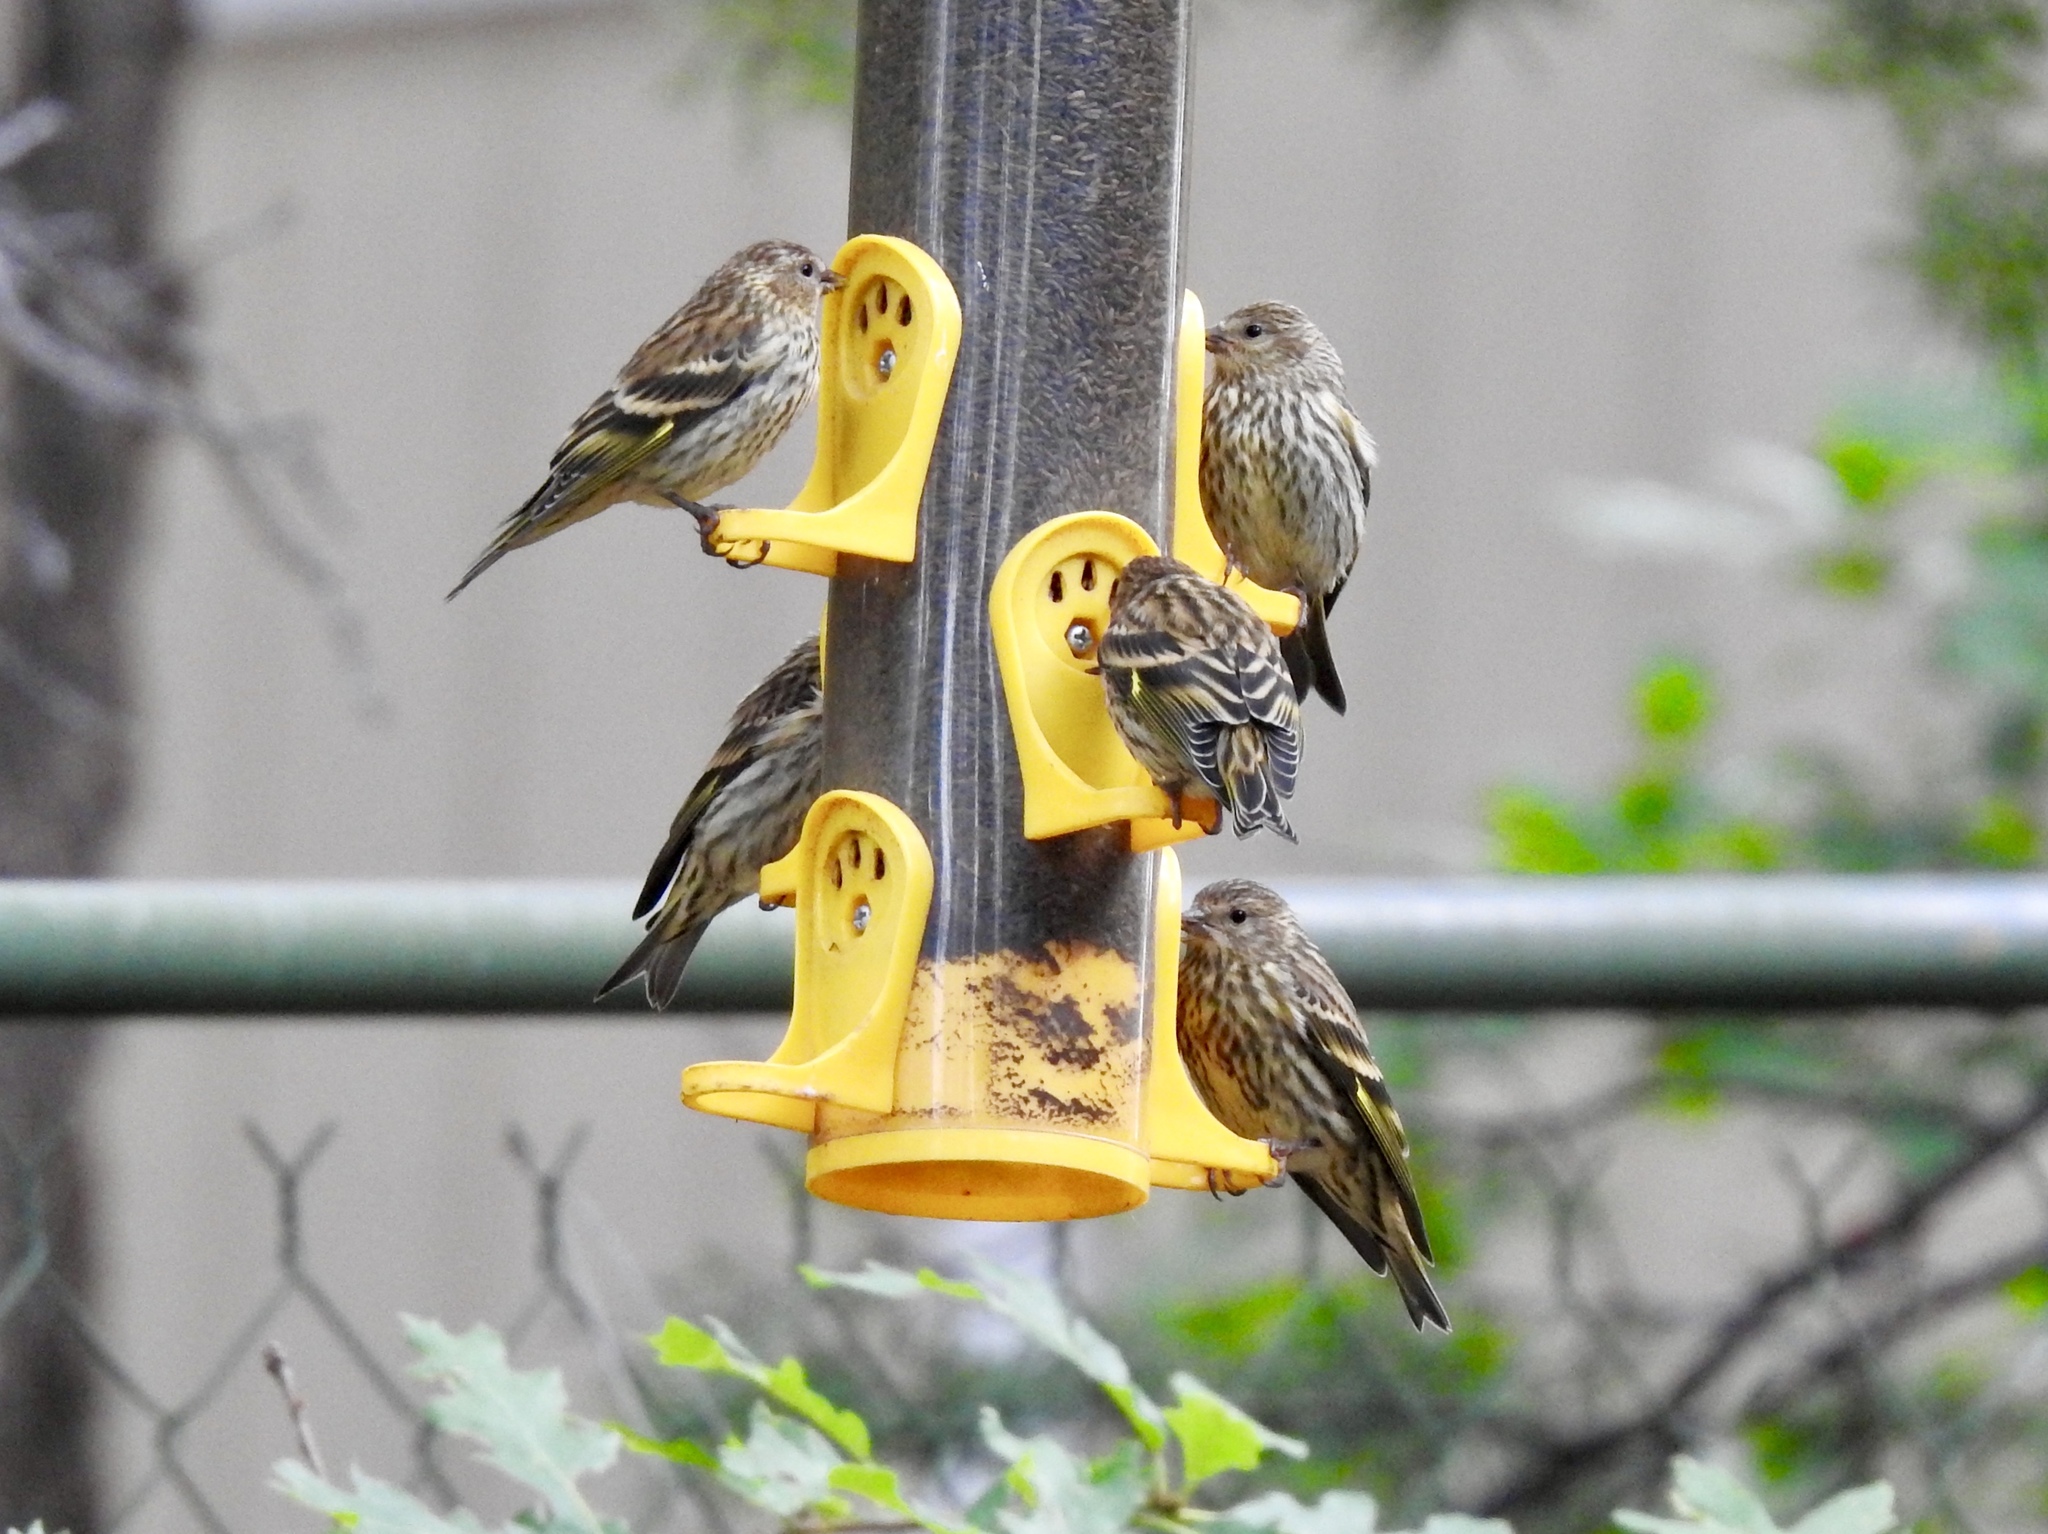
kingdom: Animalia
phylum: Chordata
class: Aves
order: Passeriformes
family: Fringillidae
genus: Spinus
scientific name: Spinus pinus
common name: Pine siskin
